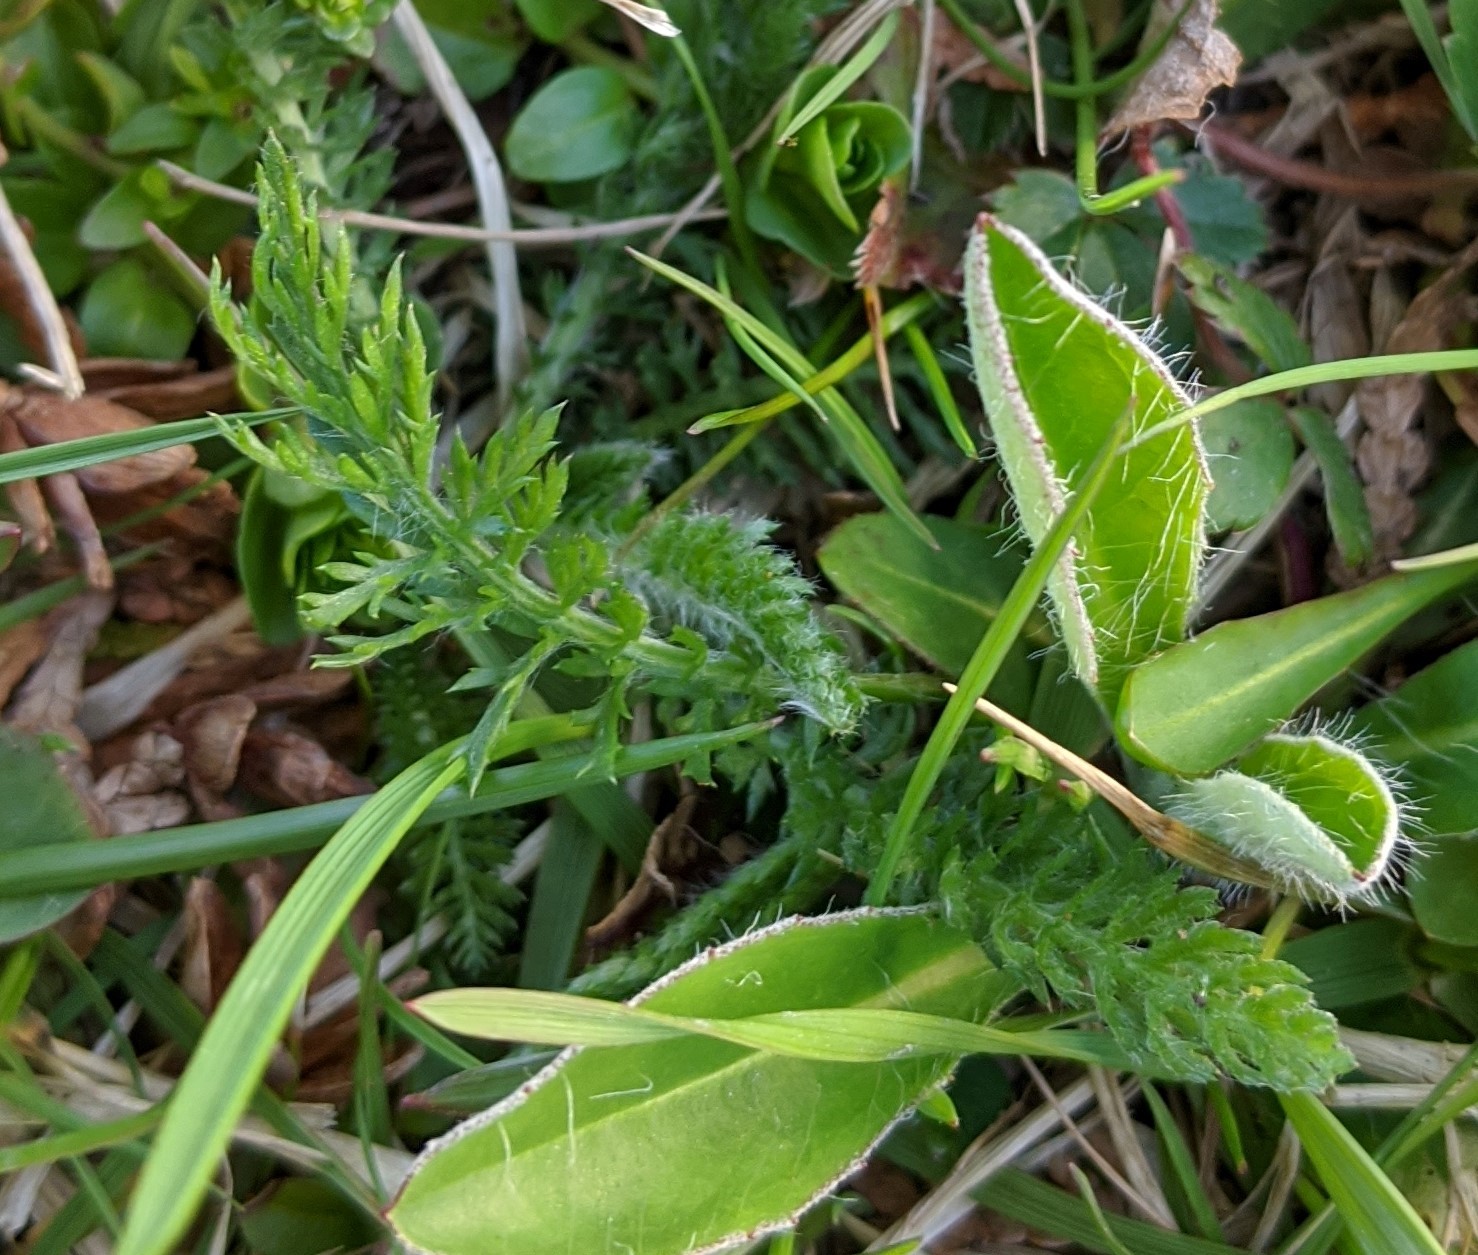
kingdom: Plantae
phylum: Tracheophyta
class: Magnoliopsida
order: Asterales
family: Asteraceae
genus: Achillea
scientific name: Achillea millefolium
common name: Yarrow
